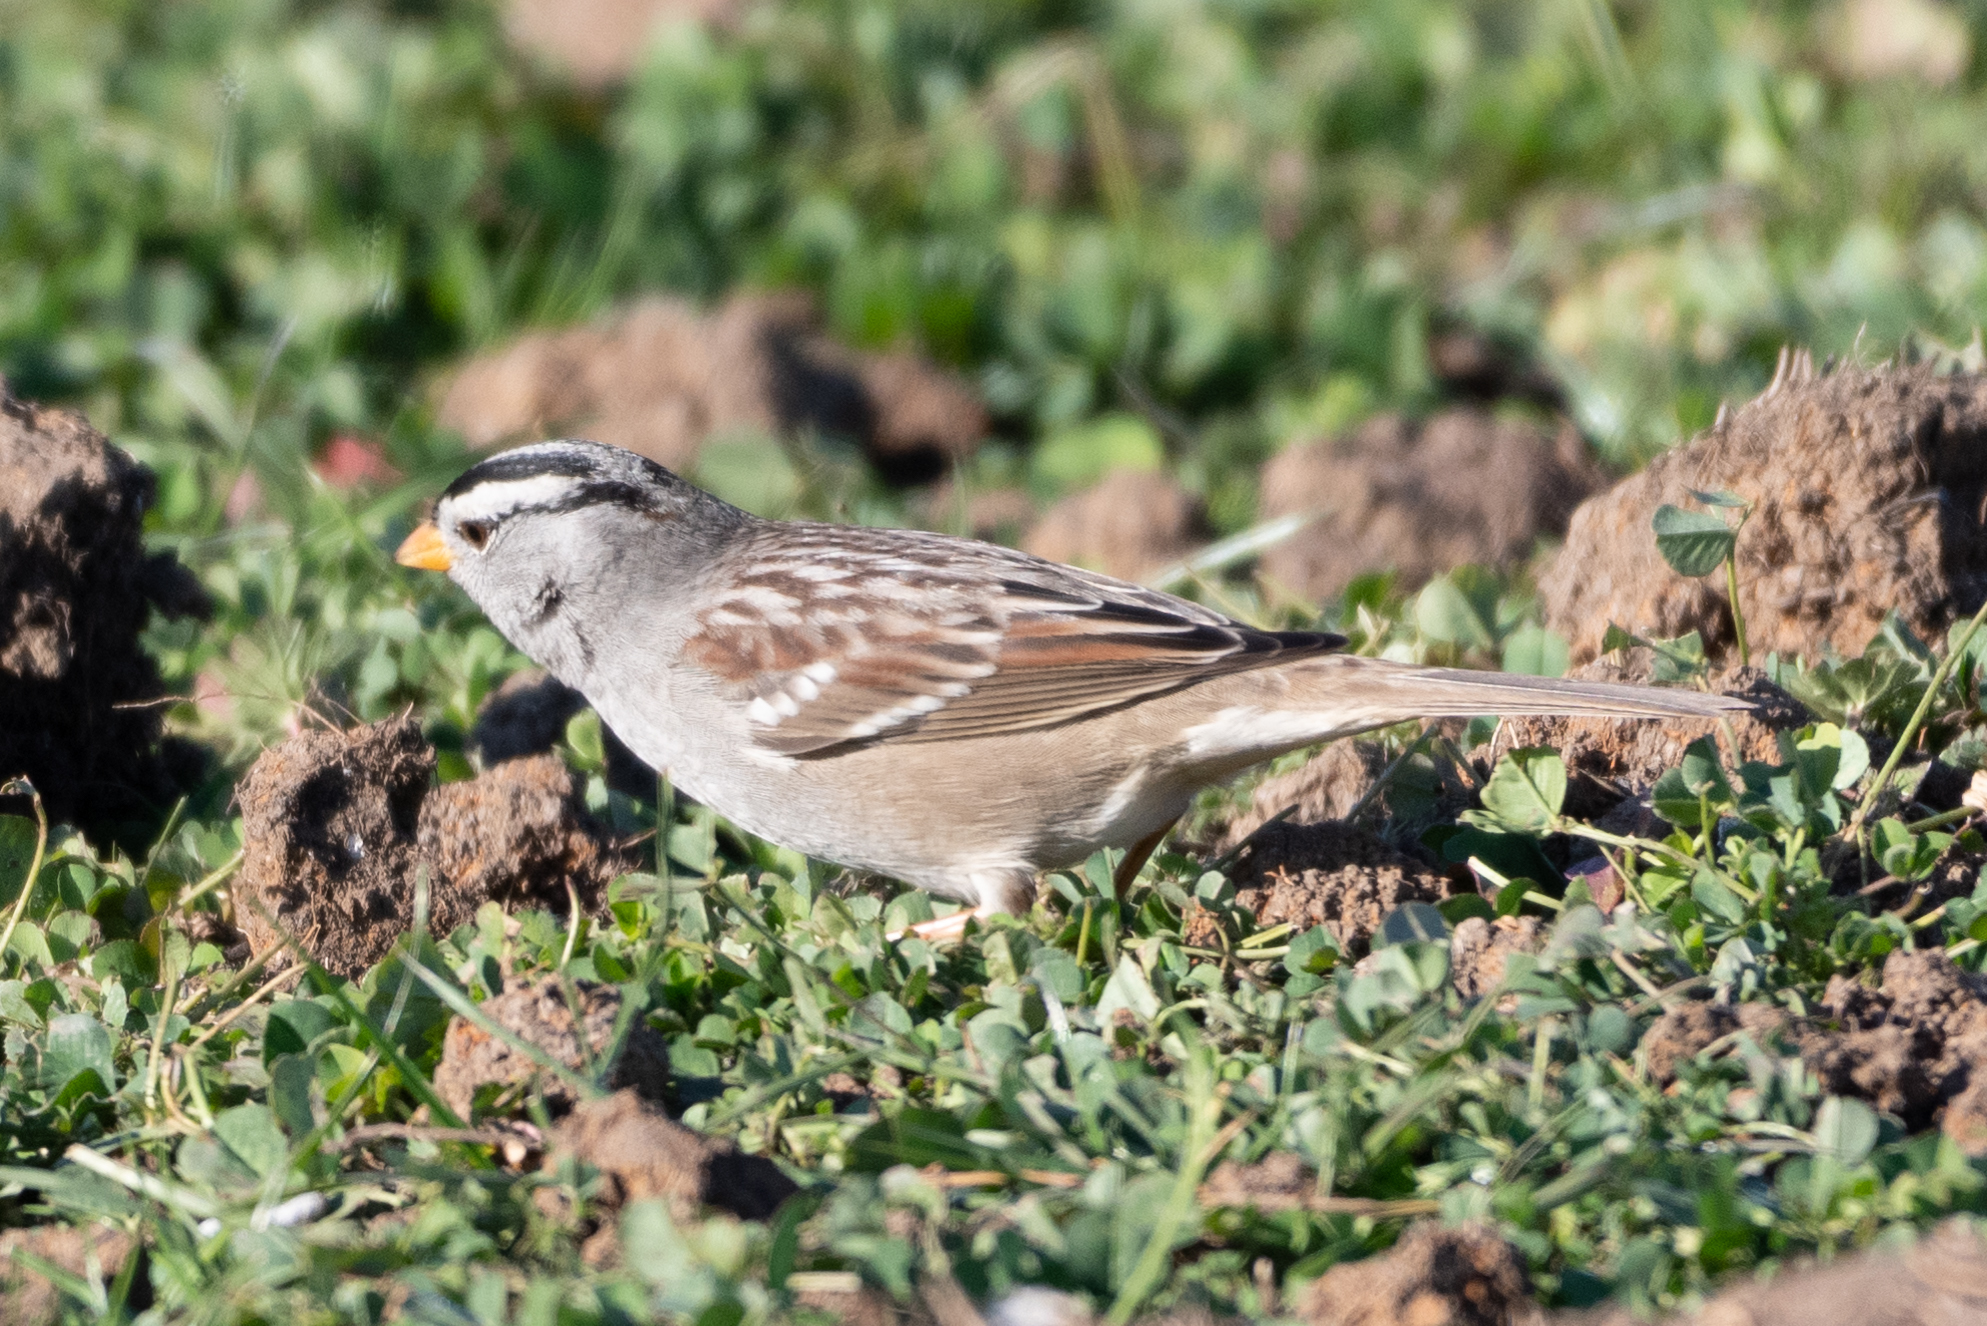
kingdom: Animalia
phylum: Chordata
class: Aves
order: Passeriformes
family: Passerellidae
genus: Zonotrichia
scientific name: Zonotrichia leucophrys
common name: White-crowned sparrow
